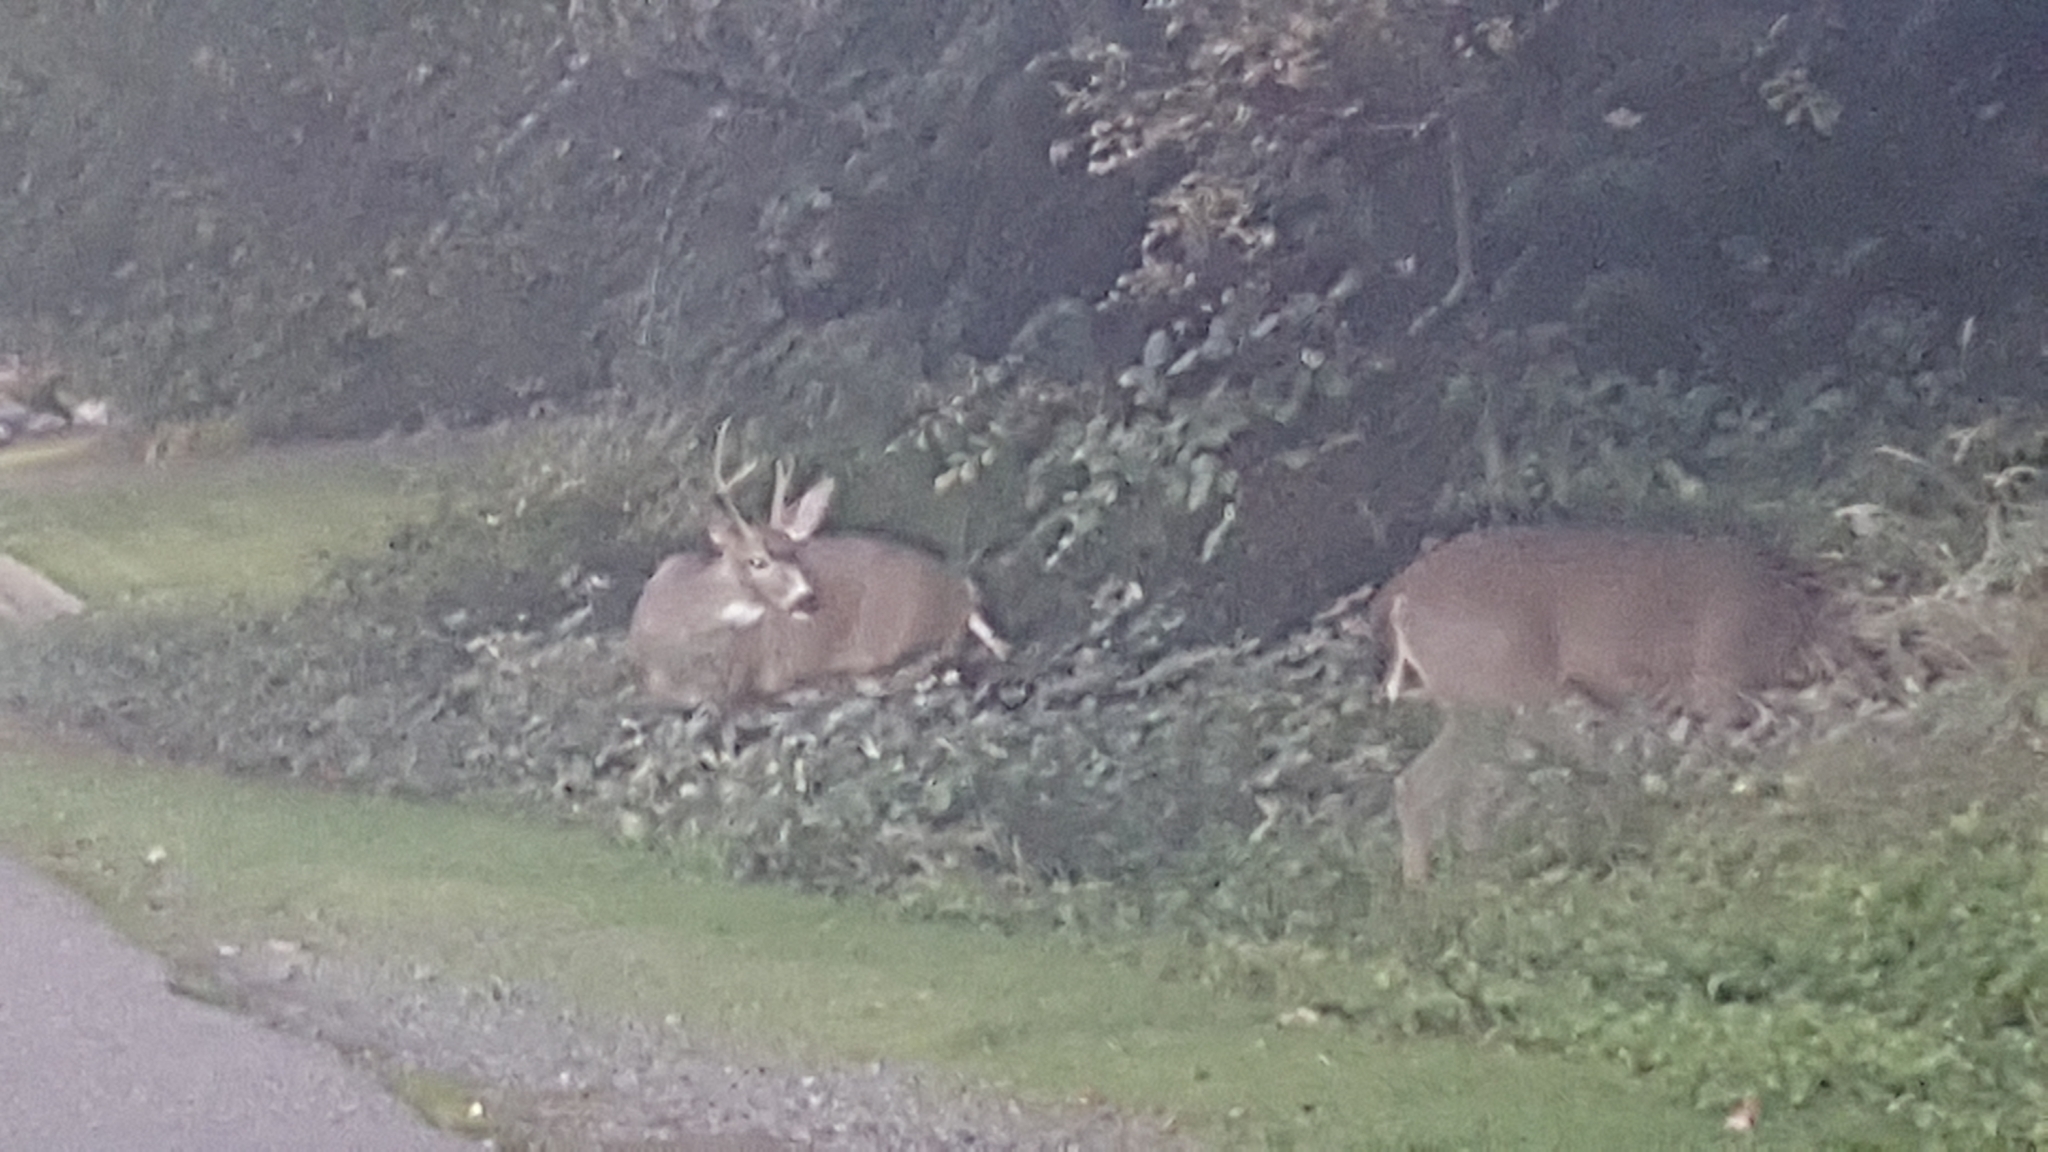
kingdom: Animalia
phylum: Chordata
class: Mammalia
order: Artiodactyla
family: Cervidae
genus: Odocoileus
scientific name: Odocoileus hemionus
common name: Mule deer
